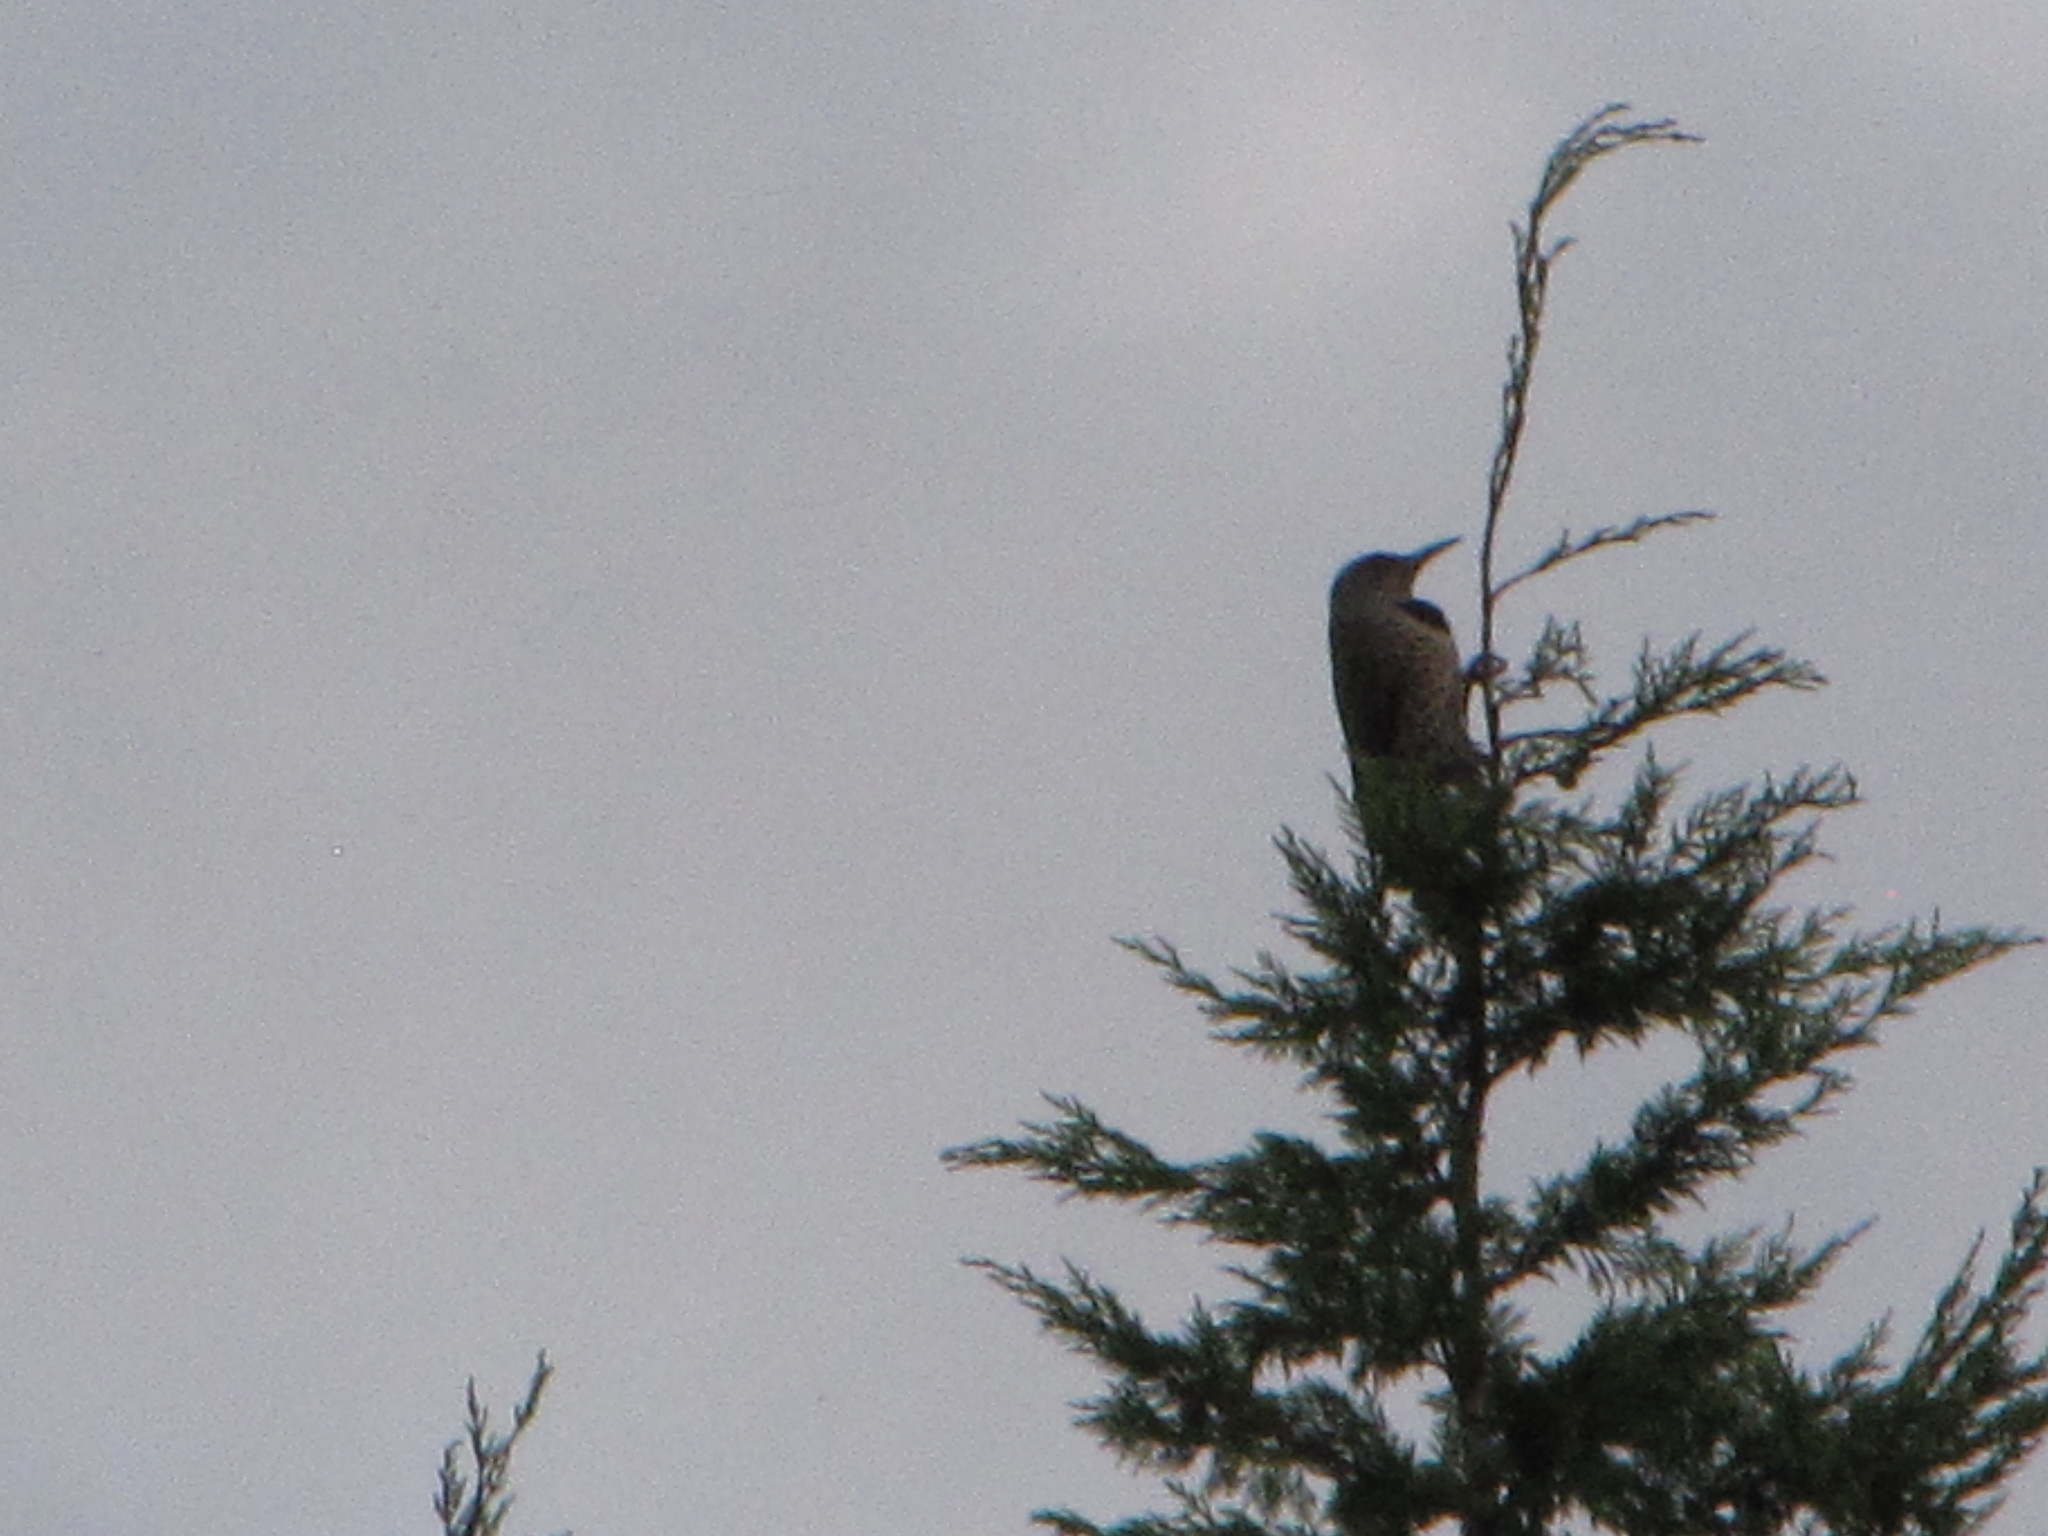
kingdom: Animalia
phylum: Chordata
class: Aves
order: Piciformes
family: Picidae
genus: Colaptes
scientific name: Colaptes auratus
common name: Northern flicker
